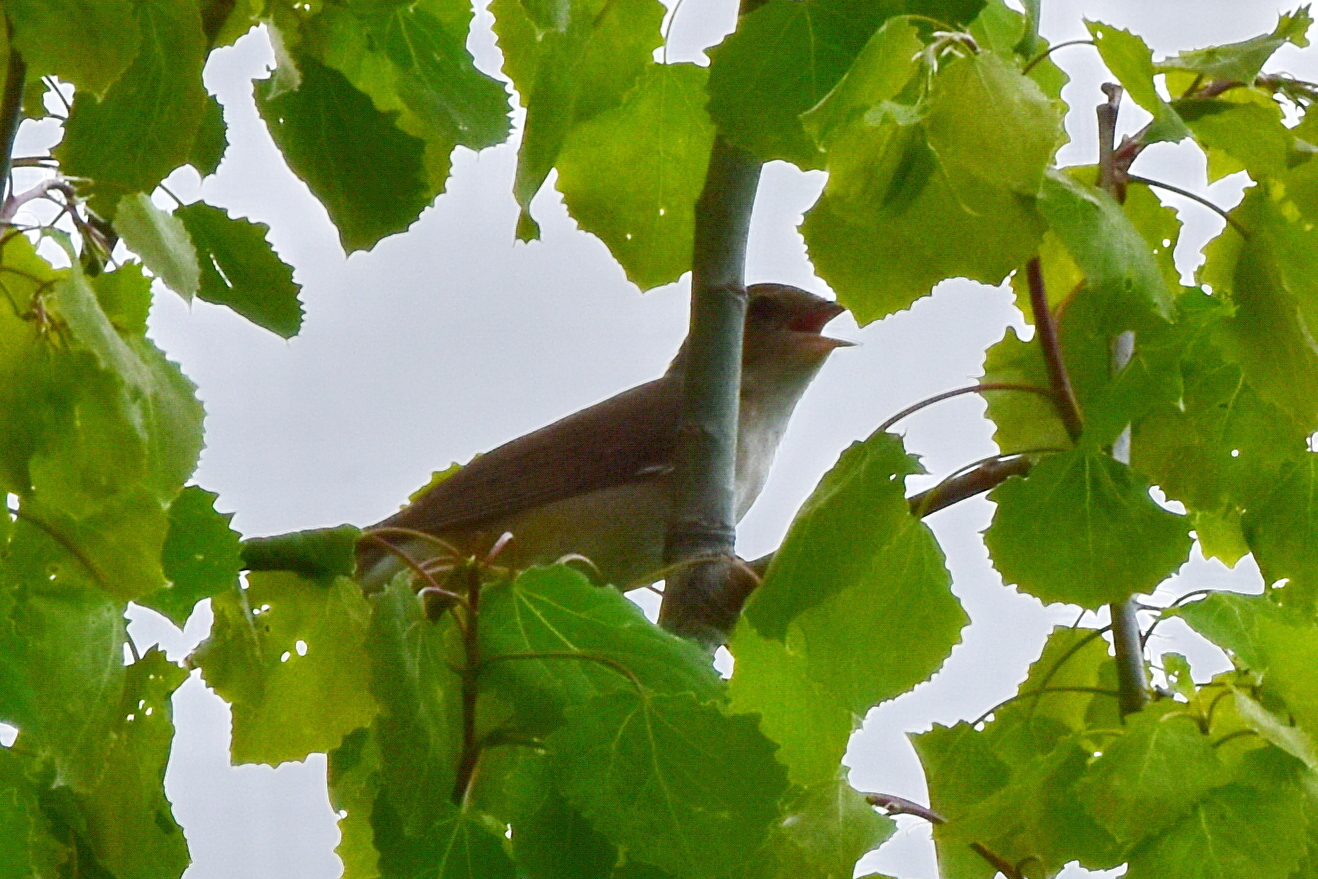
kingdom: Animalia
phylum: Chordata
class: Aves
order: Passeriformes
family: Sylviidae
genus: Sylvia
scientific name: Sylvia borin
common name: Garden warbler
